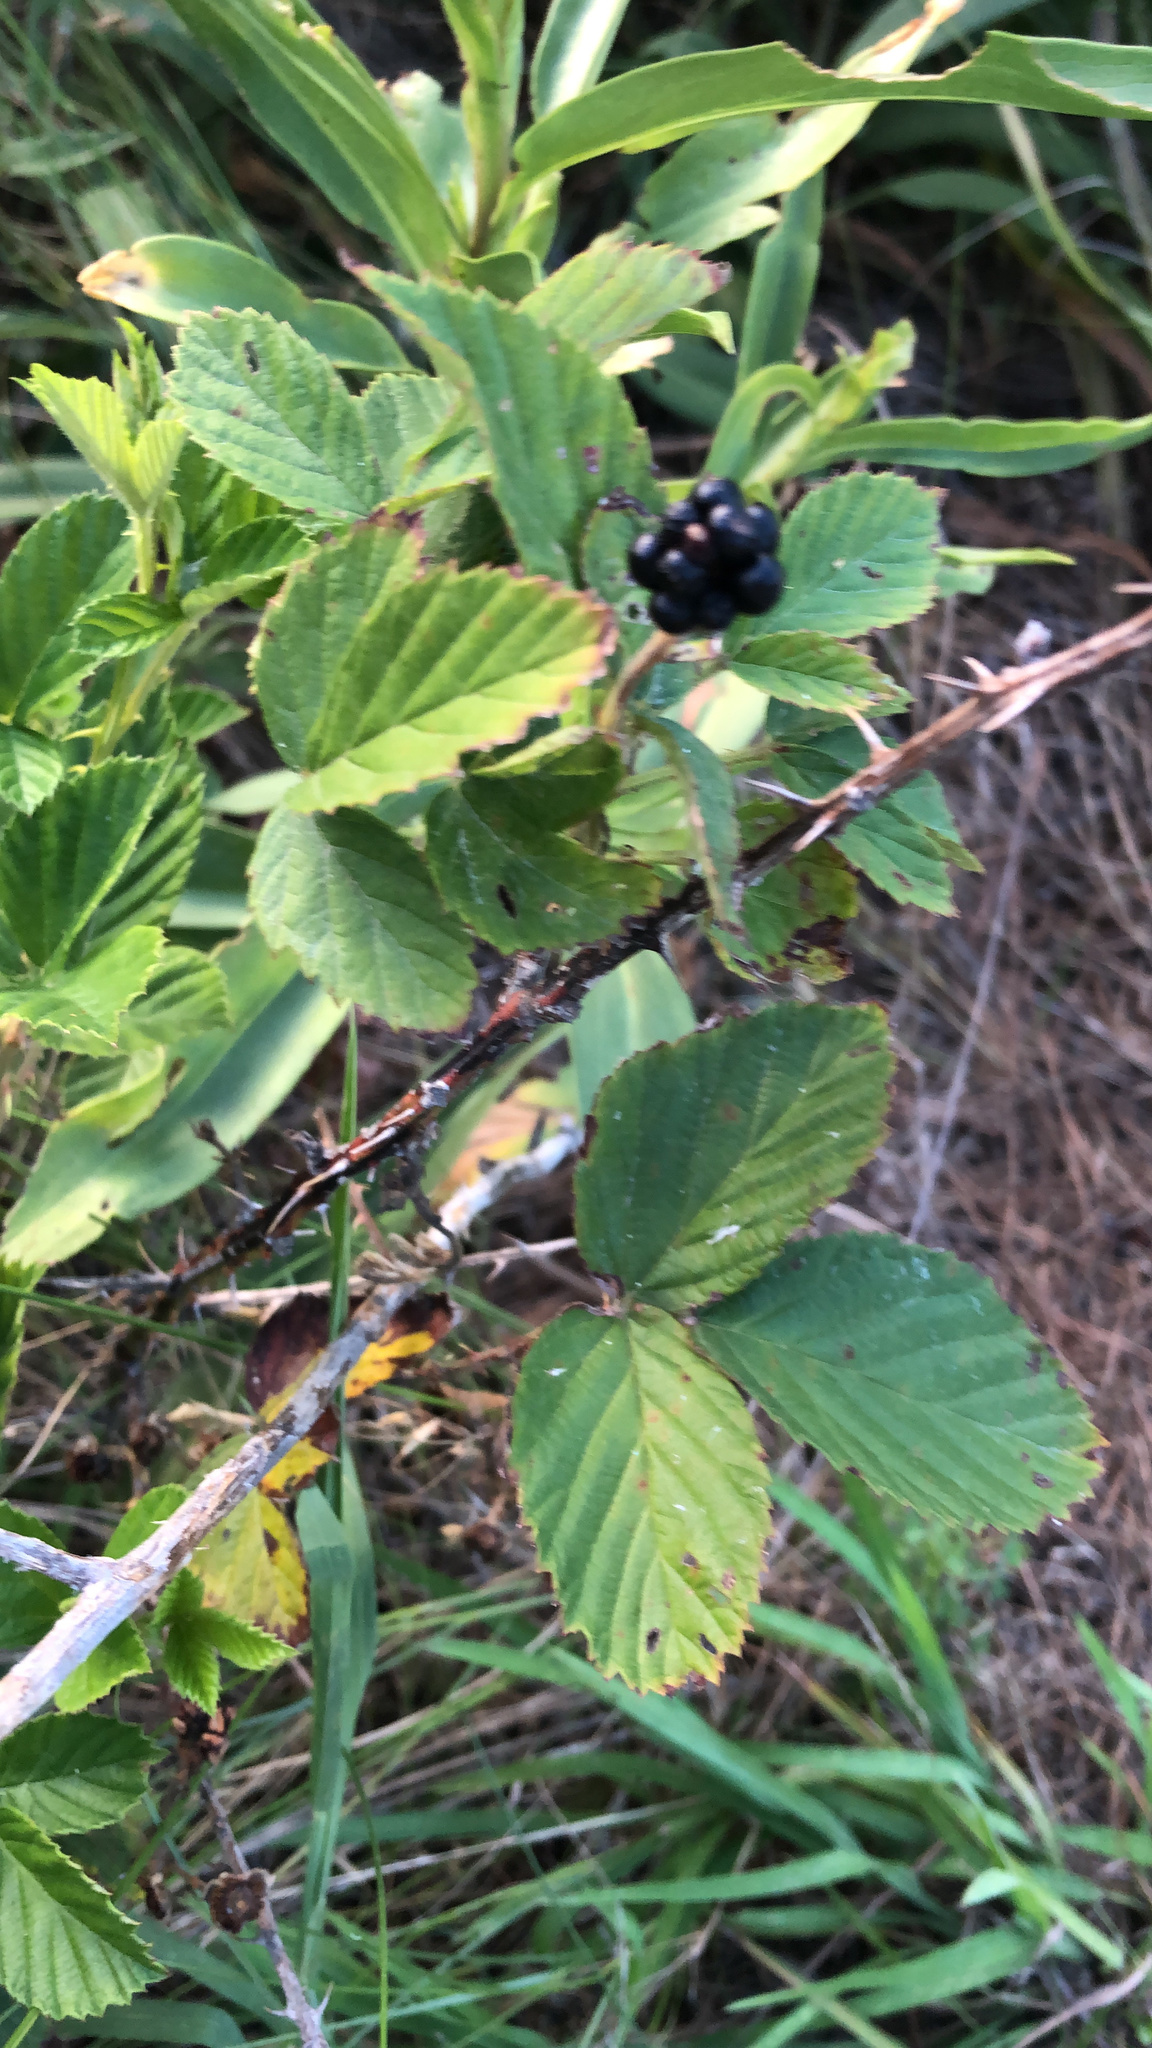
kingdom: Plantae
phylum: Tracheophyta
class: Magnoliopsida
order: Rosales
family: Rosaceae
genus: Rubus
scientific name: Rubus
